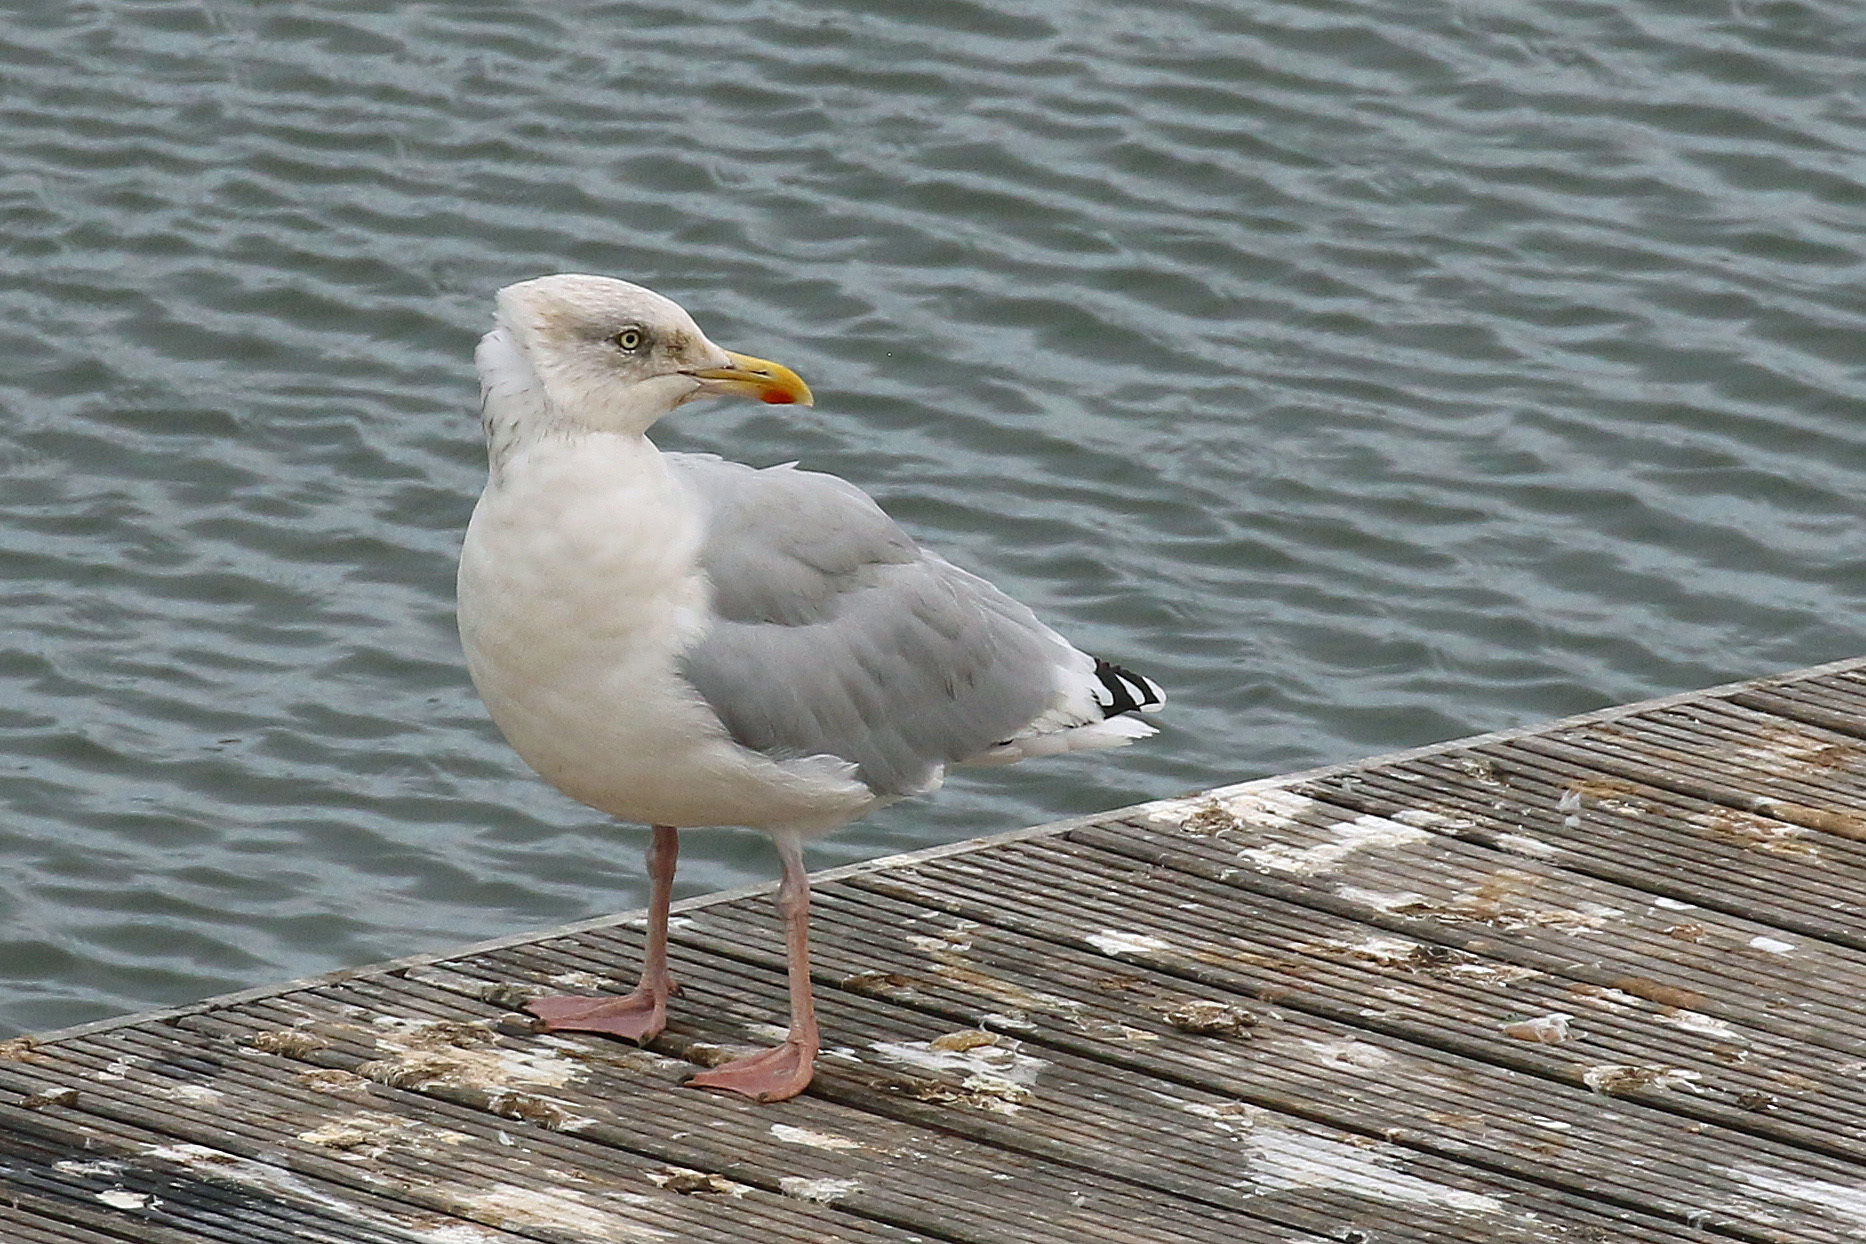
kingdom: Animalia
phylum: Chordata
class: Aves
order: Charadriiformes
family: Laridae
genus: Larus
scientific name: Larus argentatus
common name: Herring gull
